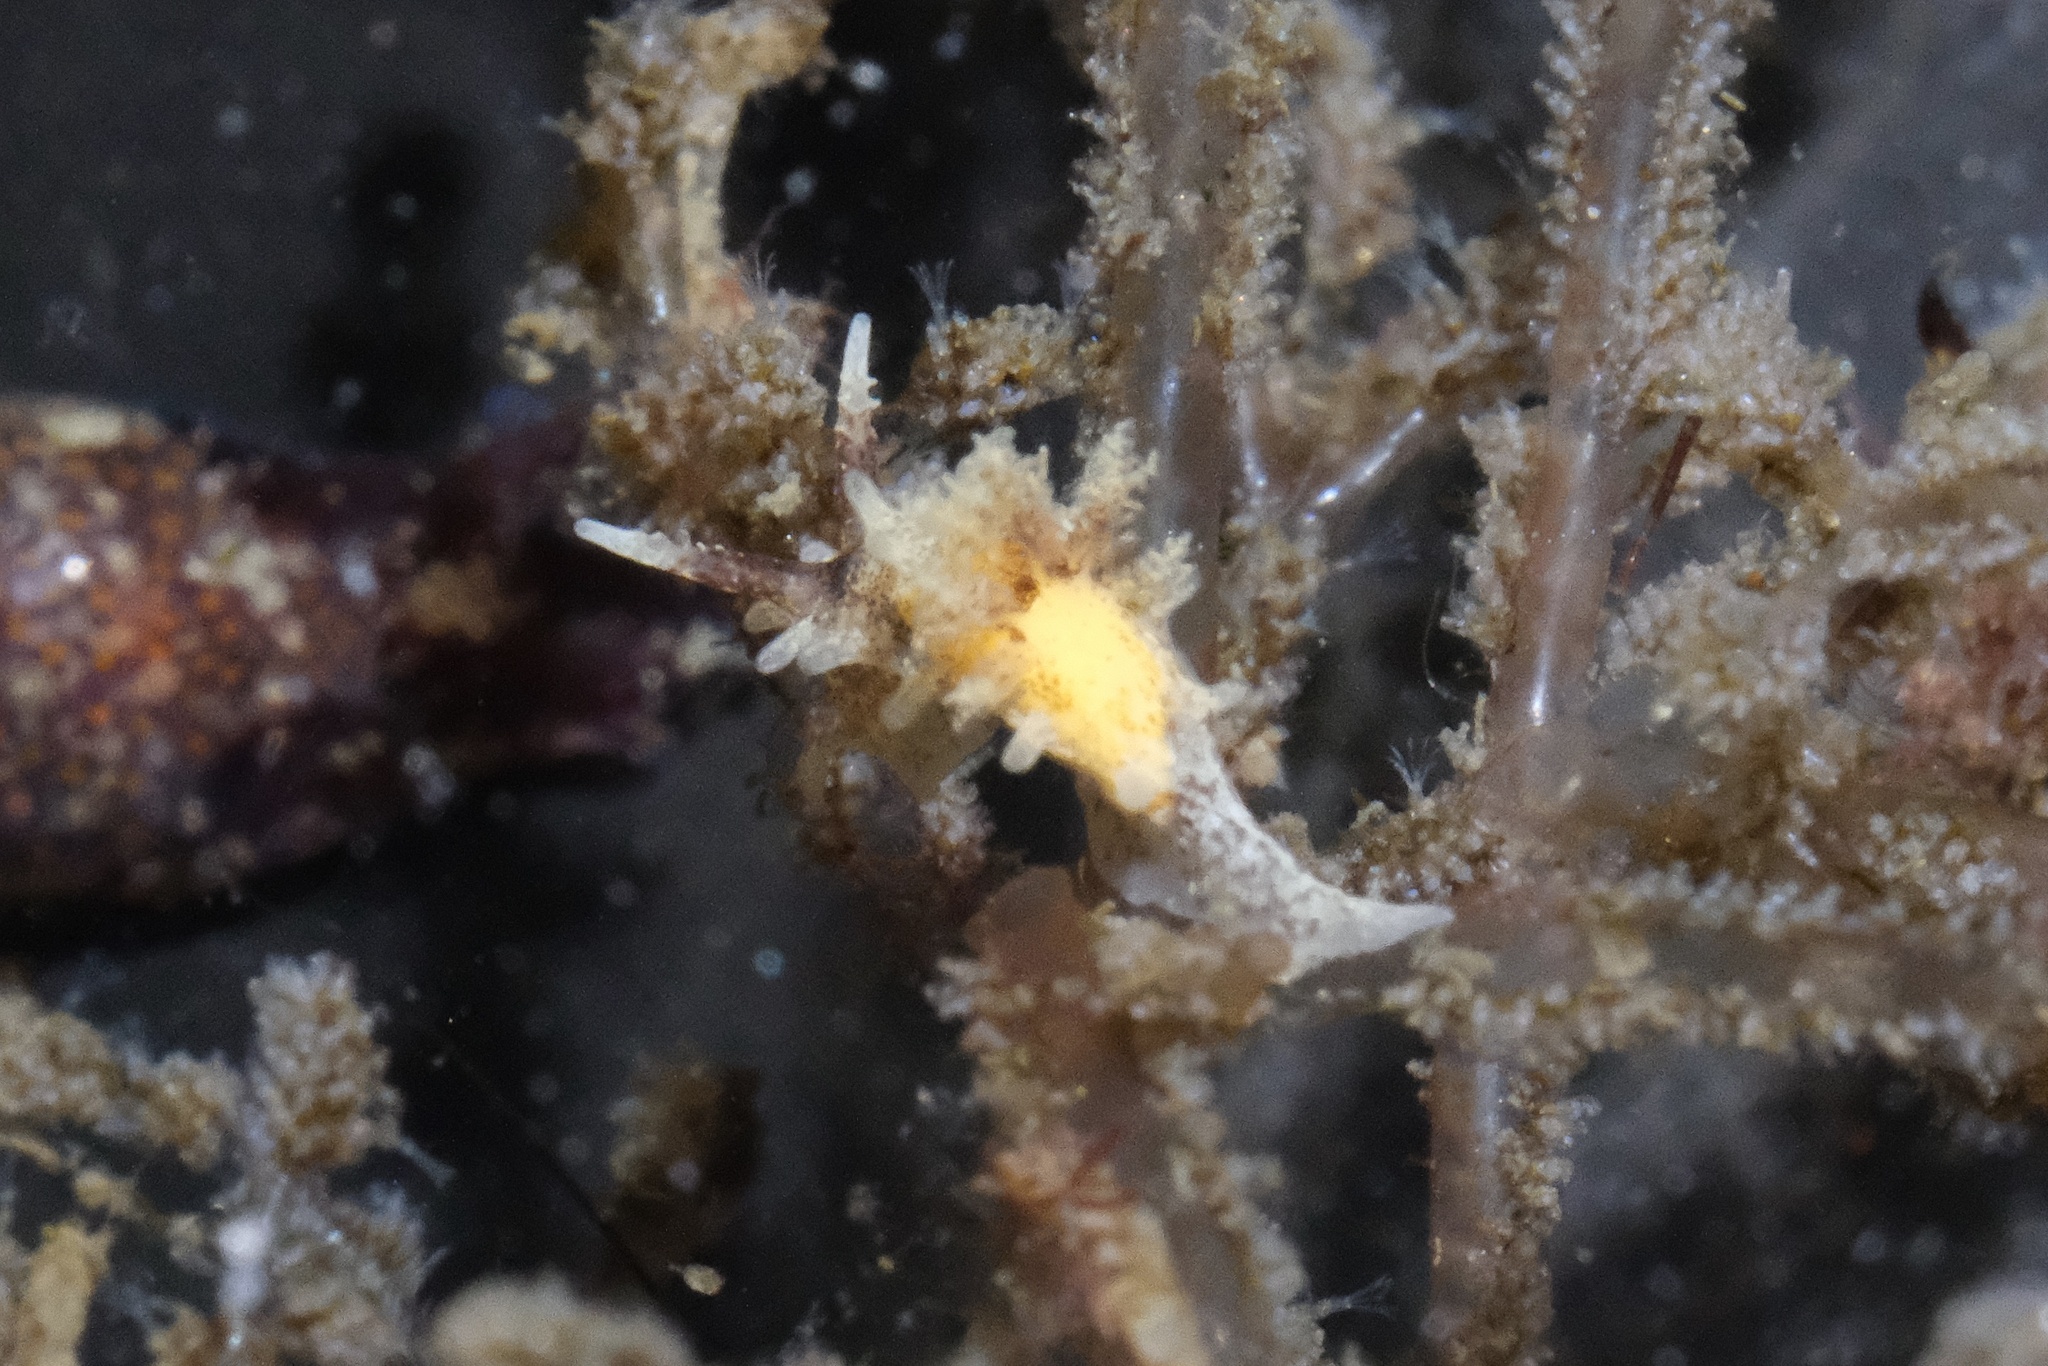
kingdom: Animalia
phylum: Mollusca
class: Gastropoda
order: Nudibranchia
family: Goniodorididae
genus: Okenia
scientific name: Okenia
